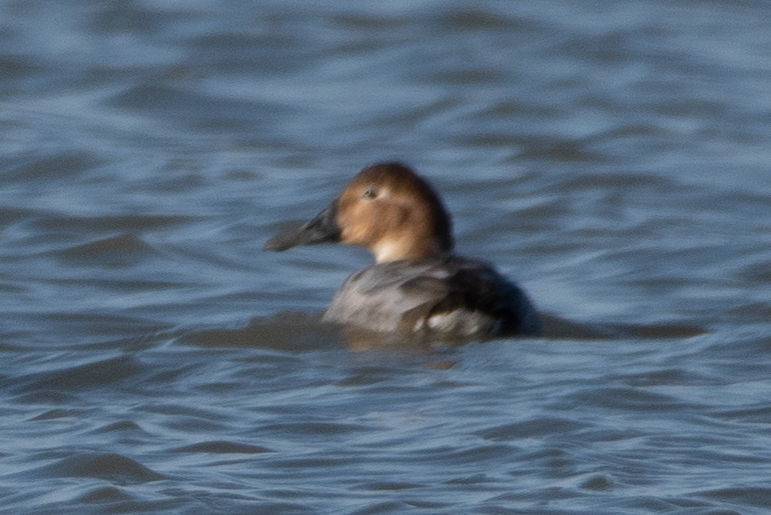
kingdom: Animalia
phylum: Chordata
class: Aves
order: Anseriformes
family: Anatidae
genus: Aythya
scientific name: Aythya valisineria
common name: Canvasback
